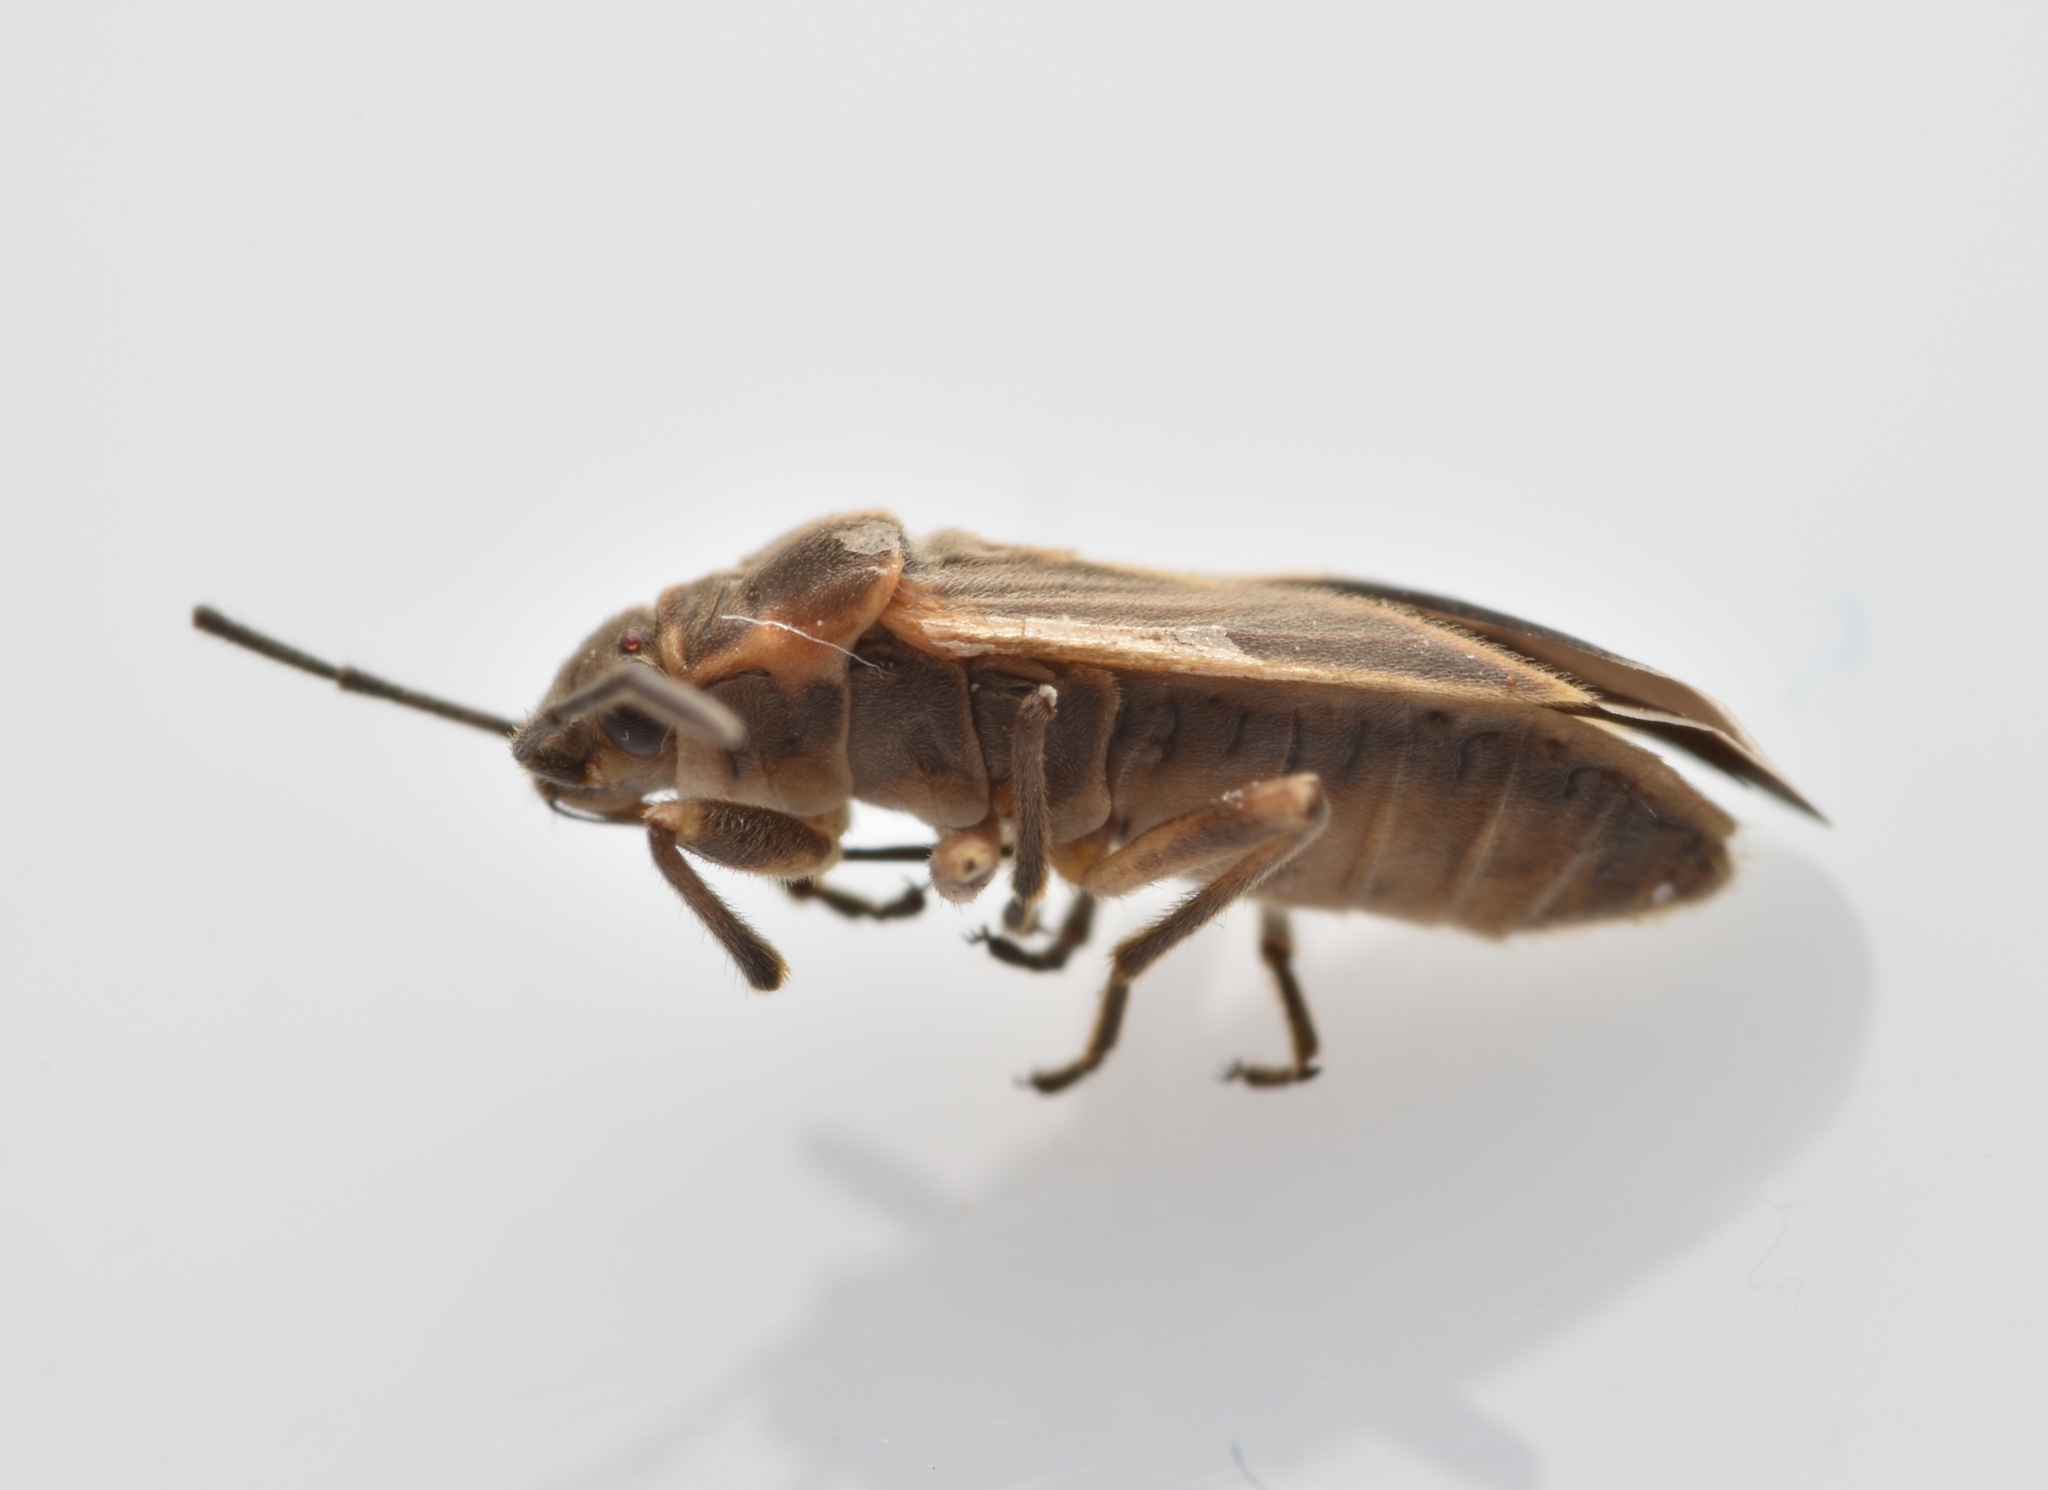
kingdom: Animalia
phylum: Arthropoda
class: Insecta
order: Hemiptera
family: Lygaeidae
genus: Ochrimnus
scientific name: Ochrimnus carnosulus
